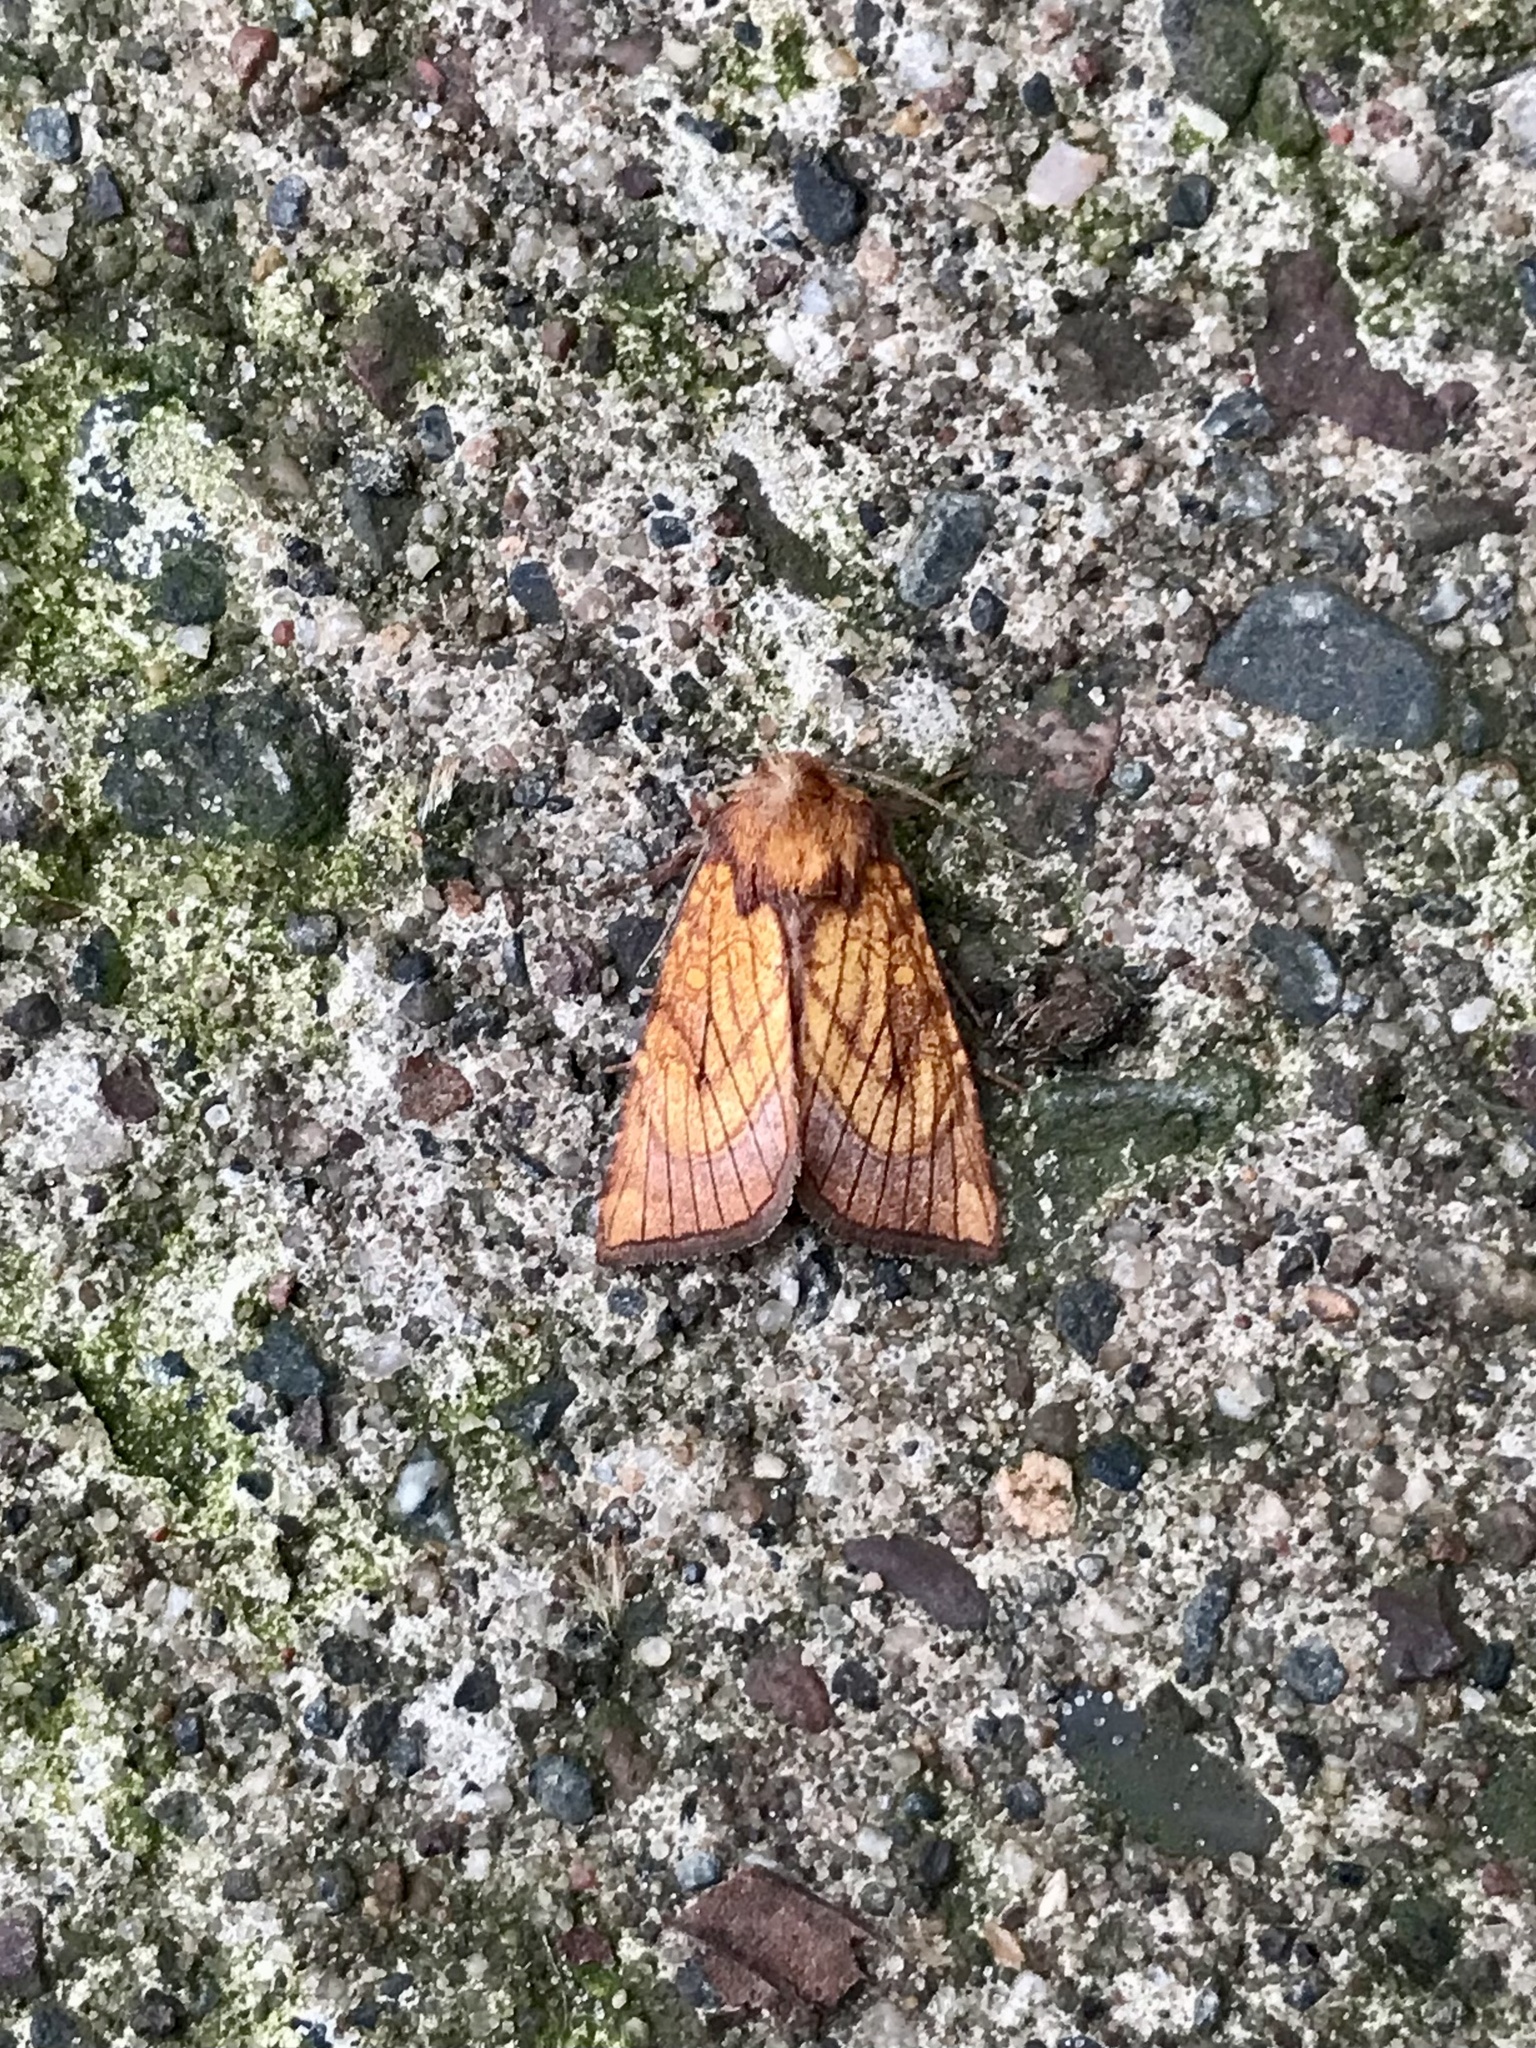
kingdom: Animalia
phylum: Arthropoda
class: Insecta
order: Lepidoptera
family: Noctuidae
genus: Papaipema
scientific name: Papaipema inquaesita
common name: Sensitive fern borer moth
